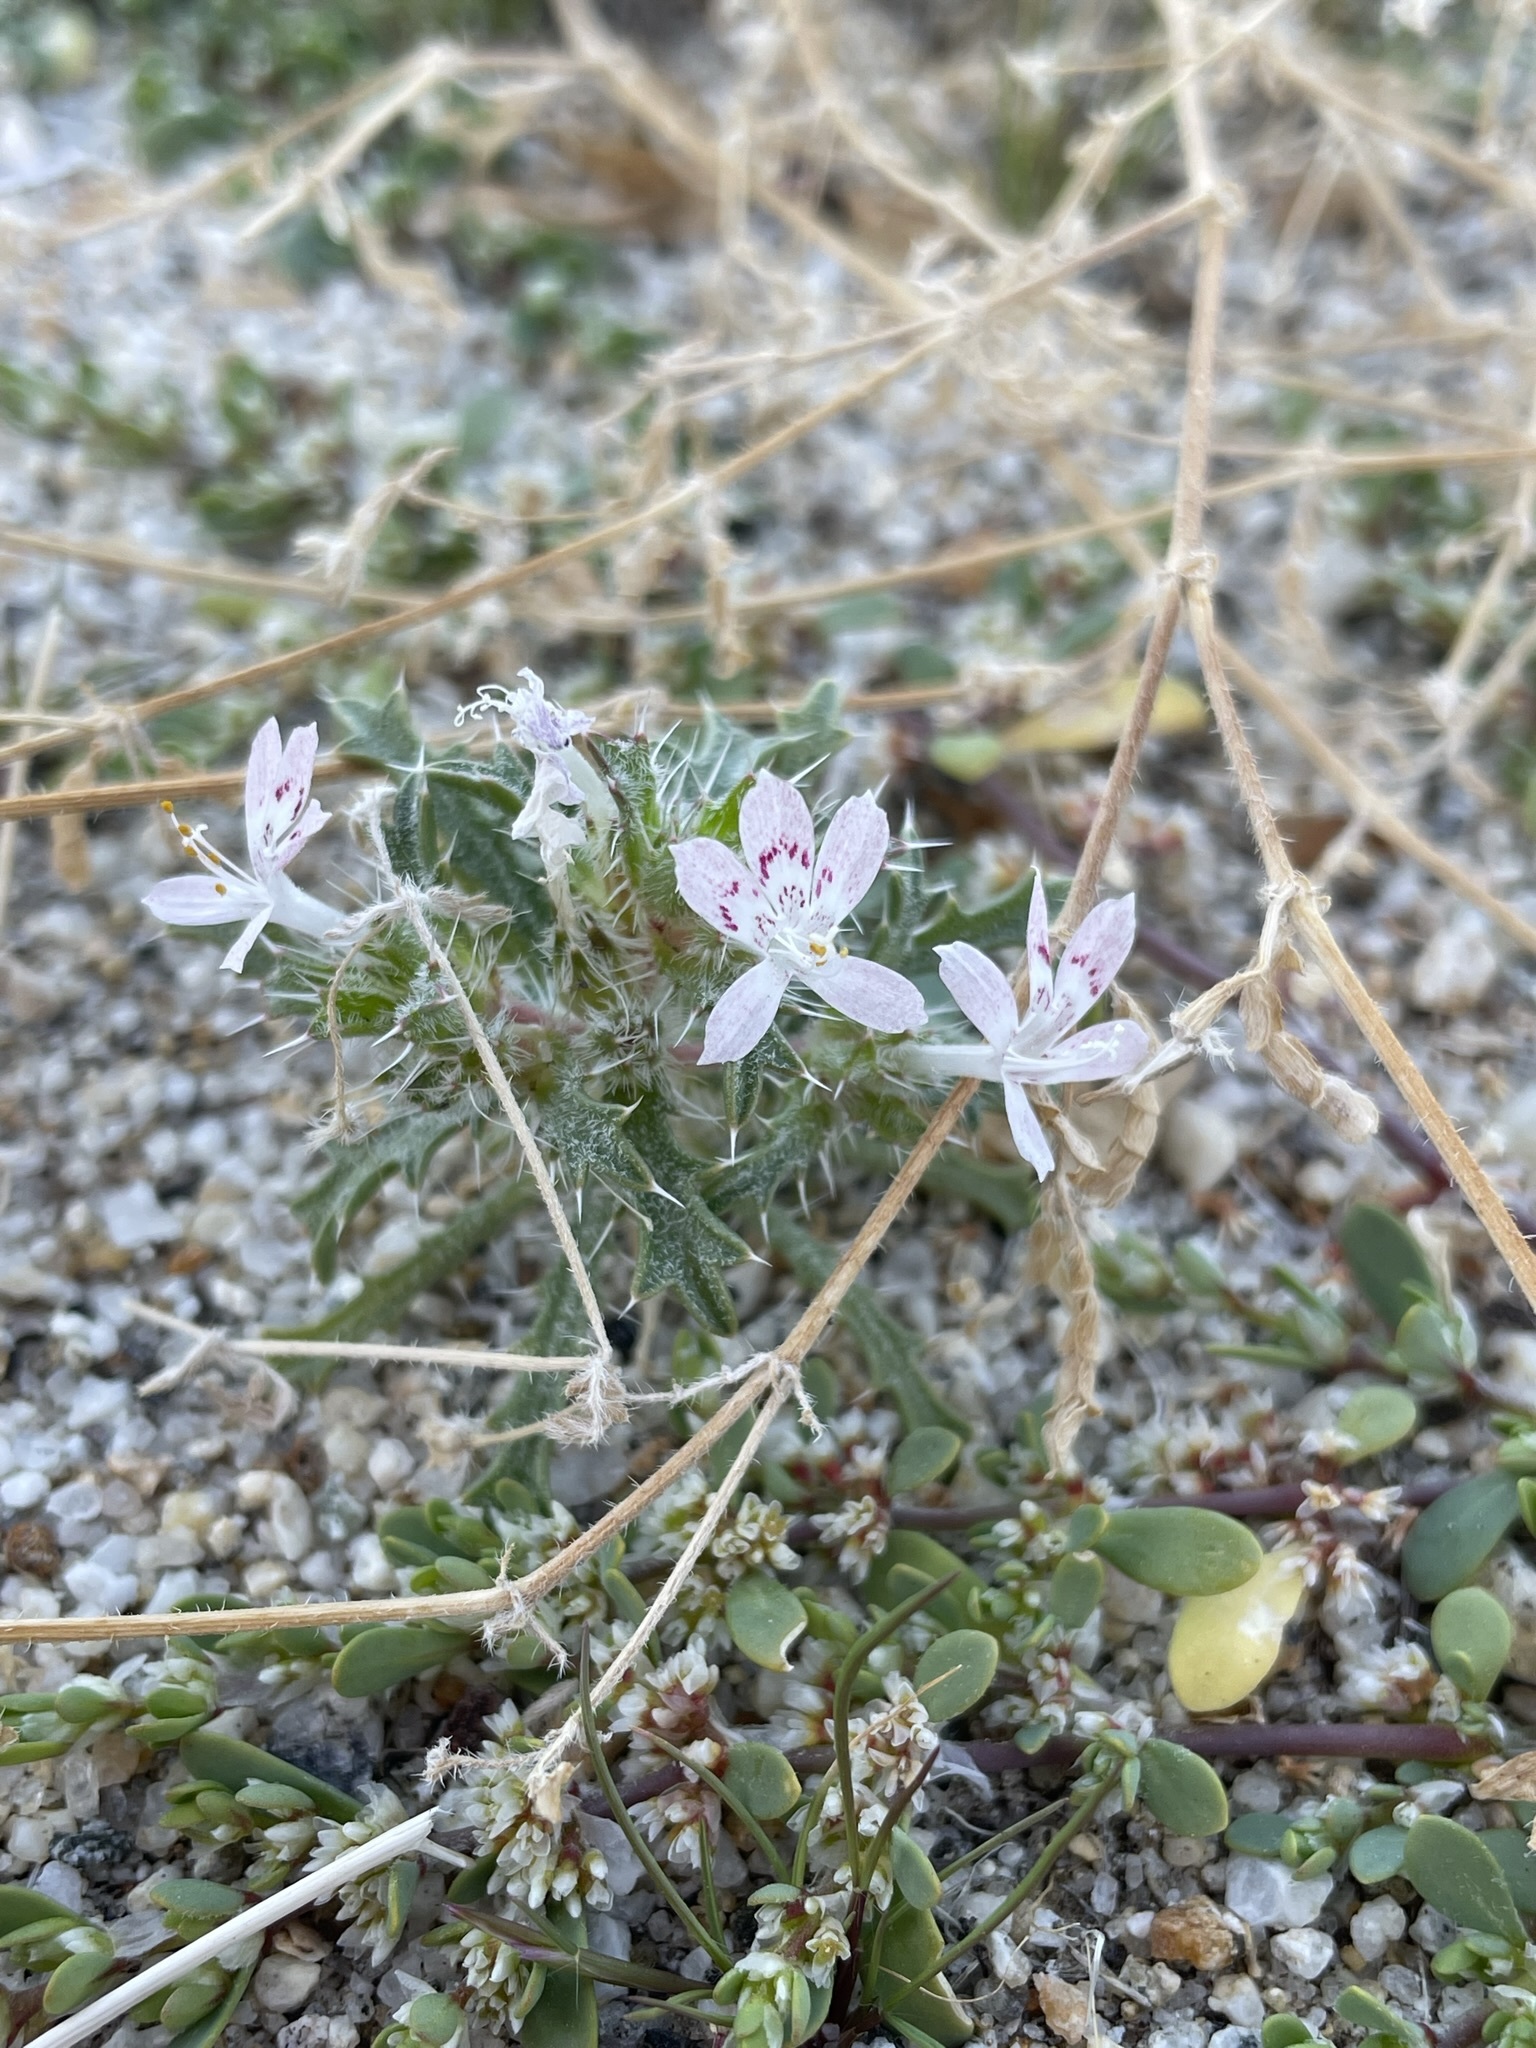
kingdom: Plantae
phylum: Tracheophyta
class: Magnoliopsida
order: Ericales
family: Polemoniaceae
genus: Loeseliastrum
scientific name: Loeseliastrum schottii
